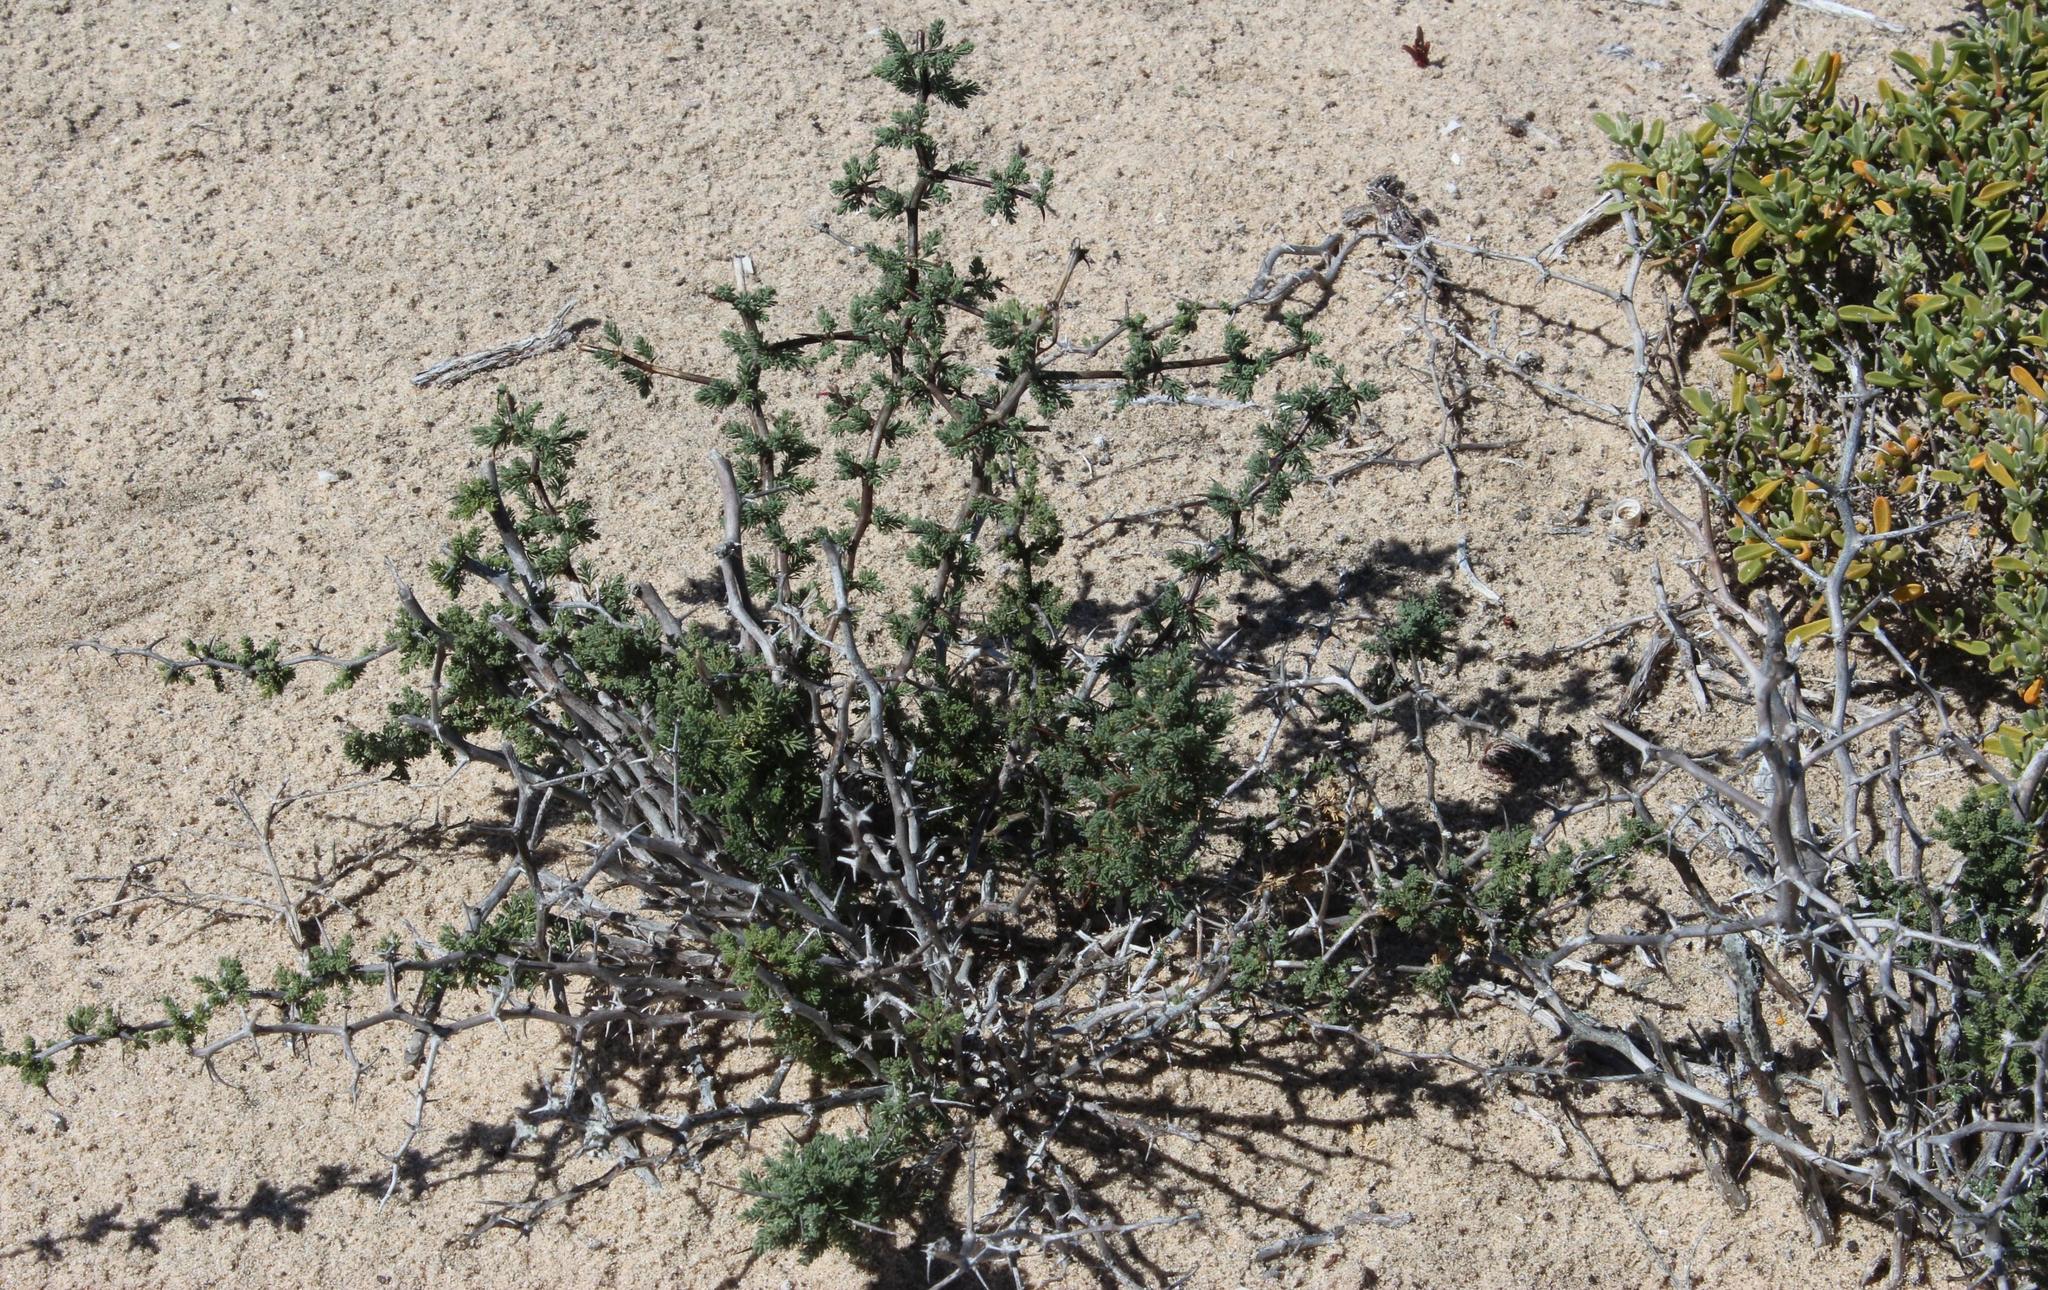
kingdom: Plantae
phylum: Tracheophyta
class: Liliopsida
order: Asparagales
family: Asparagaceae
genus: Asparagus
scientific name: Asparagus capensis
